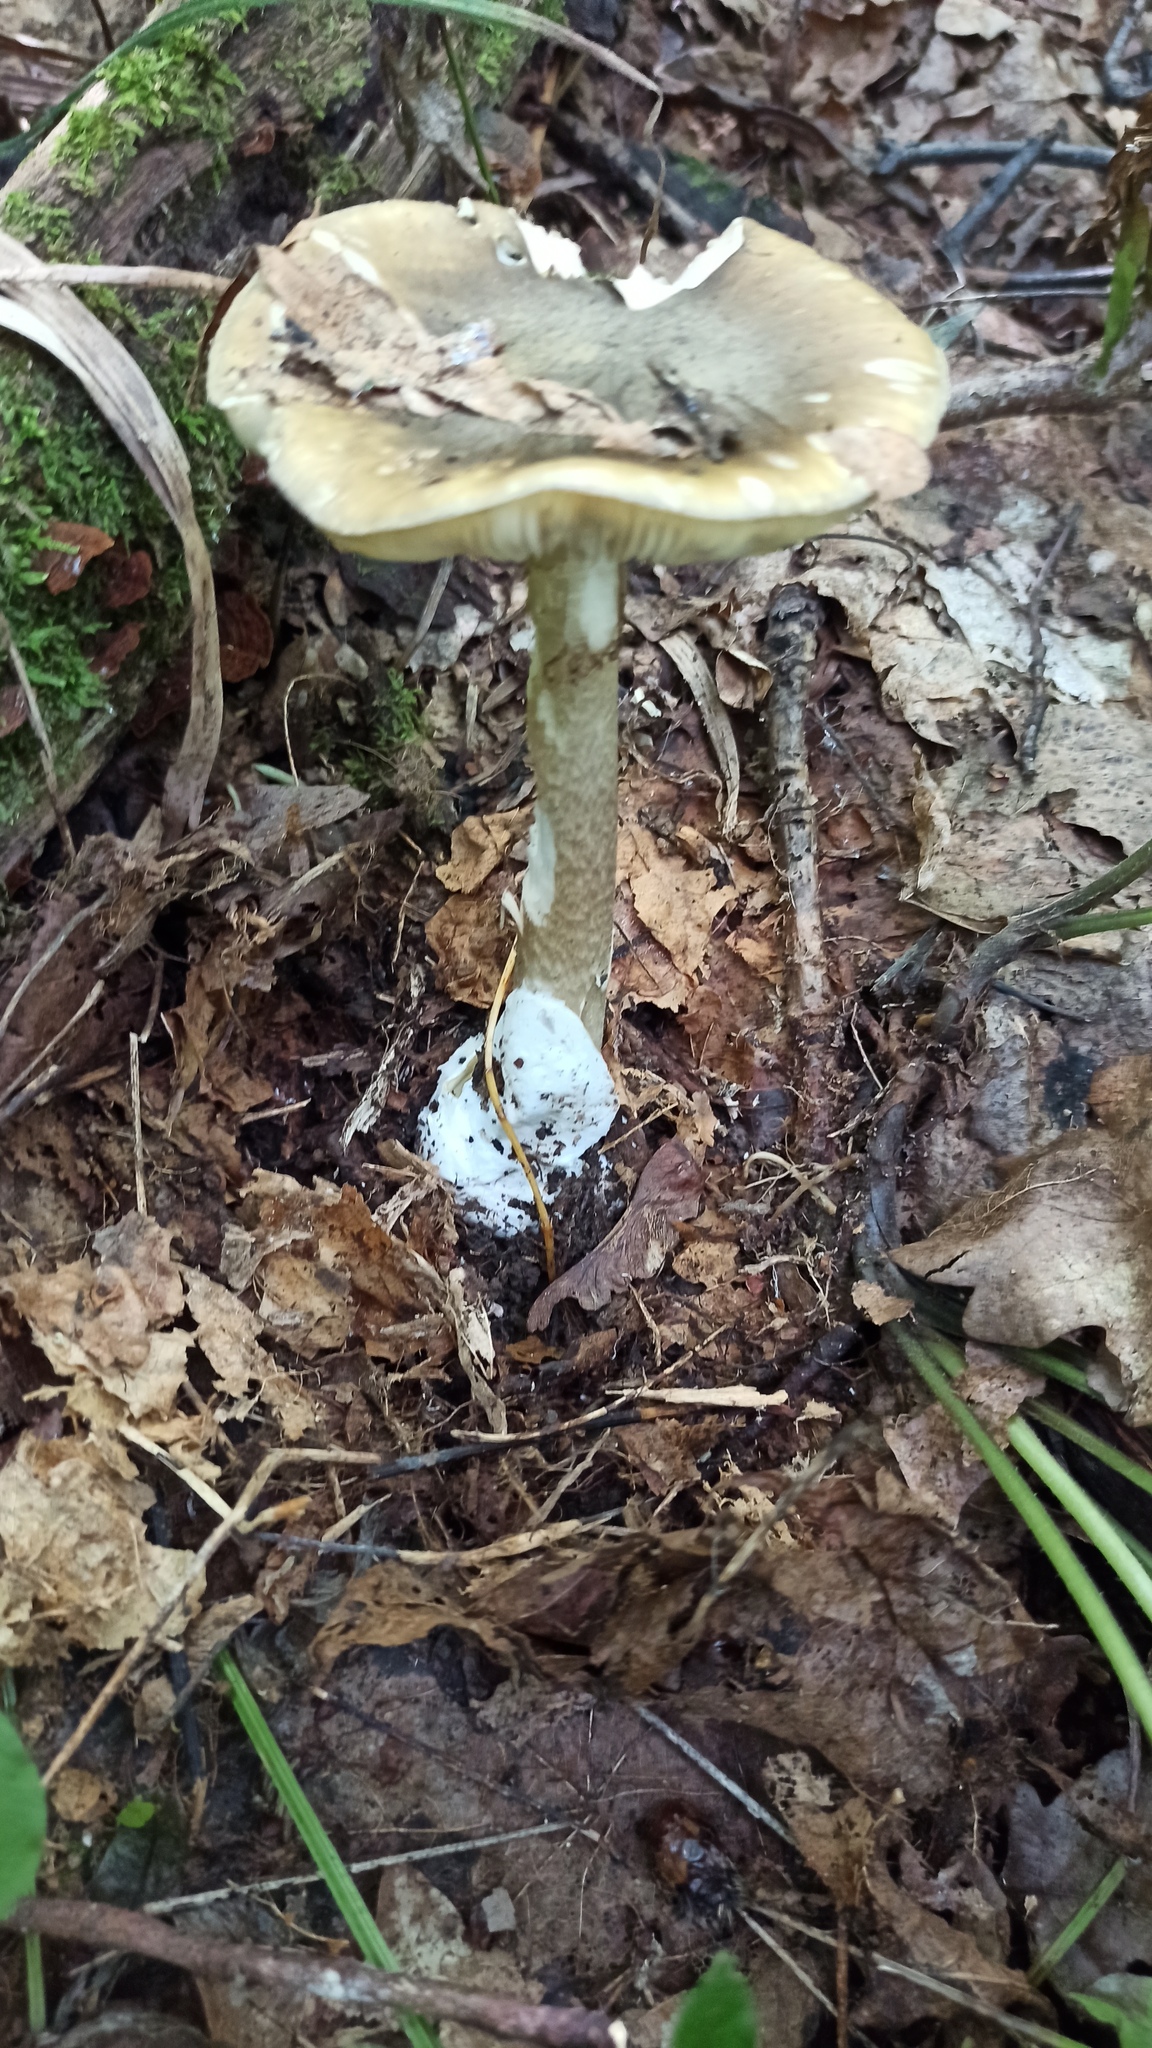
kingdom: Fungi
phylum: Basidiomycota
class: Agaricomycetes
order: Agaricales
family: Amanitaceae
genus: Amanita
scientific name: Amanita phalloides
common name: Death cap
